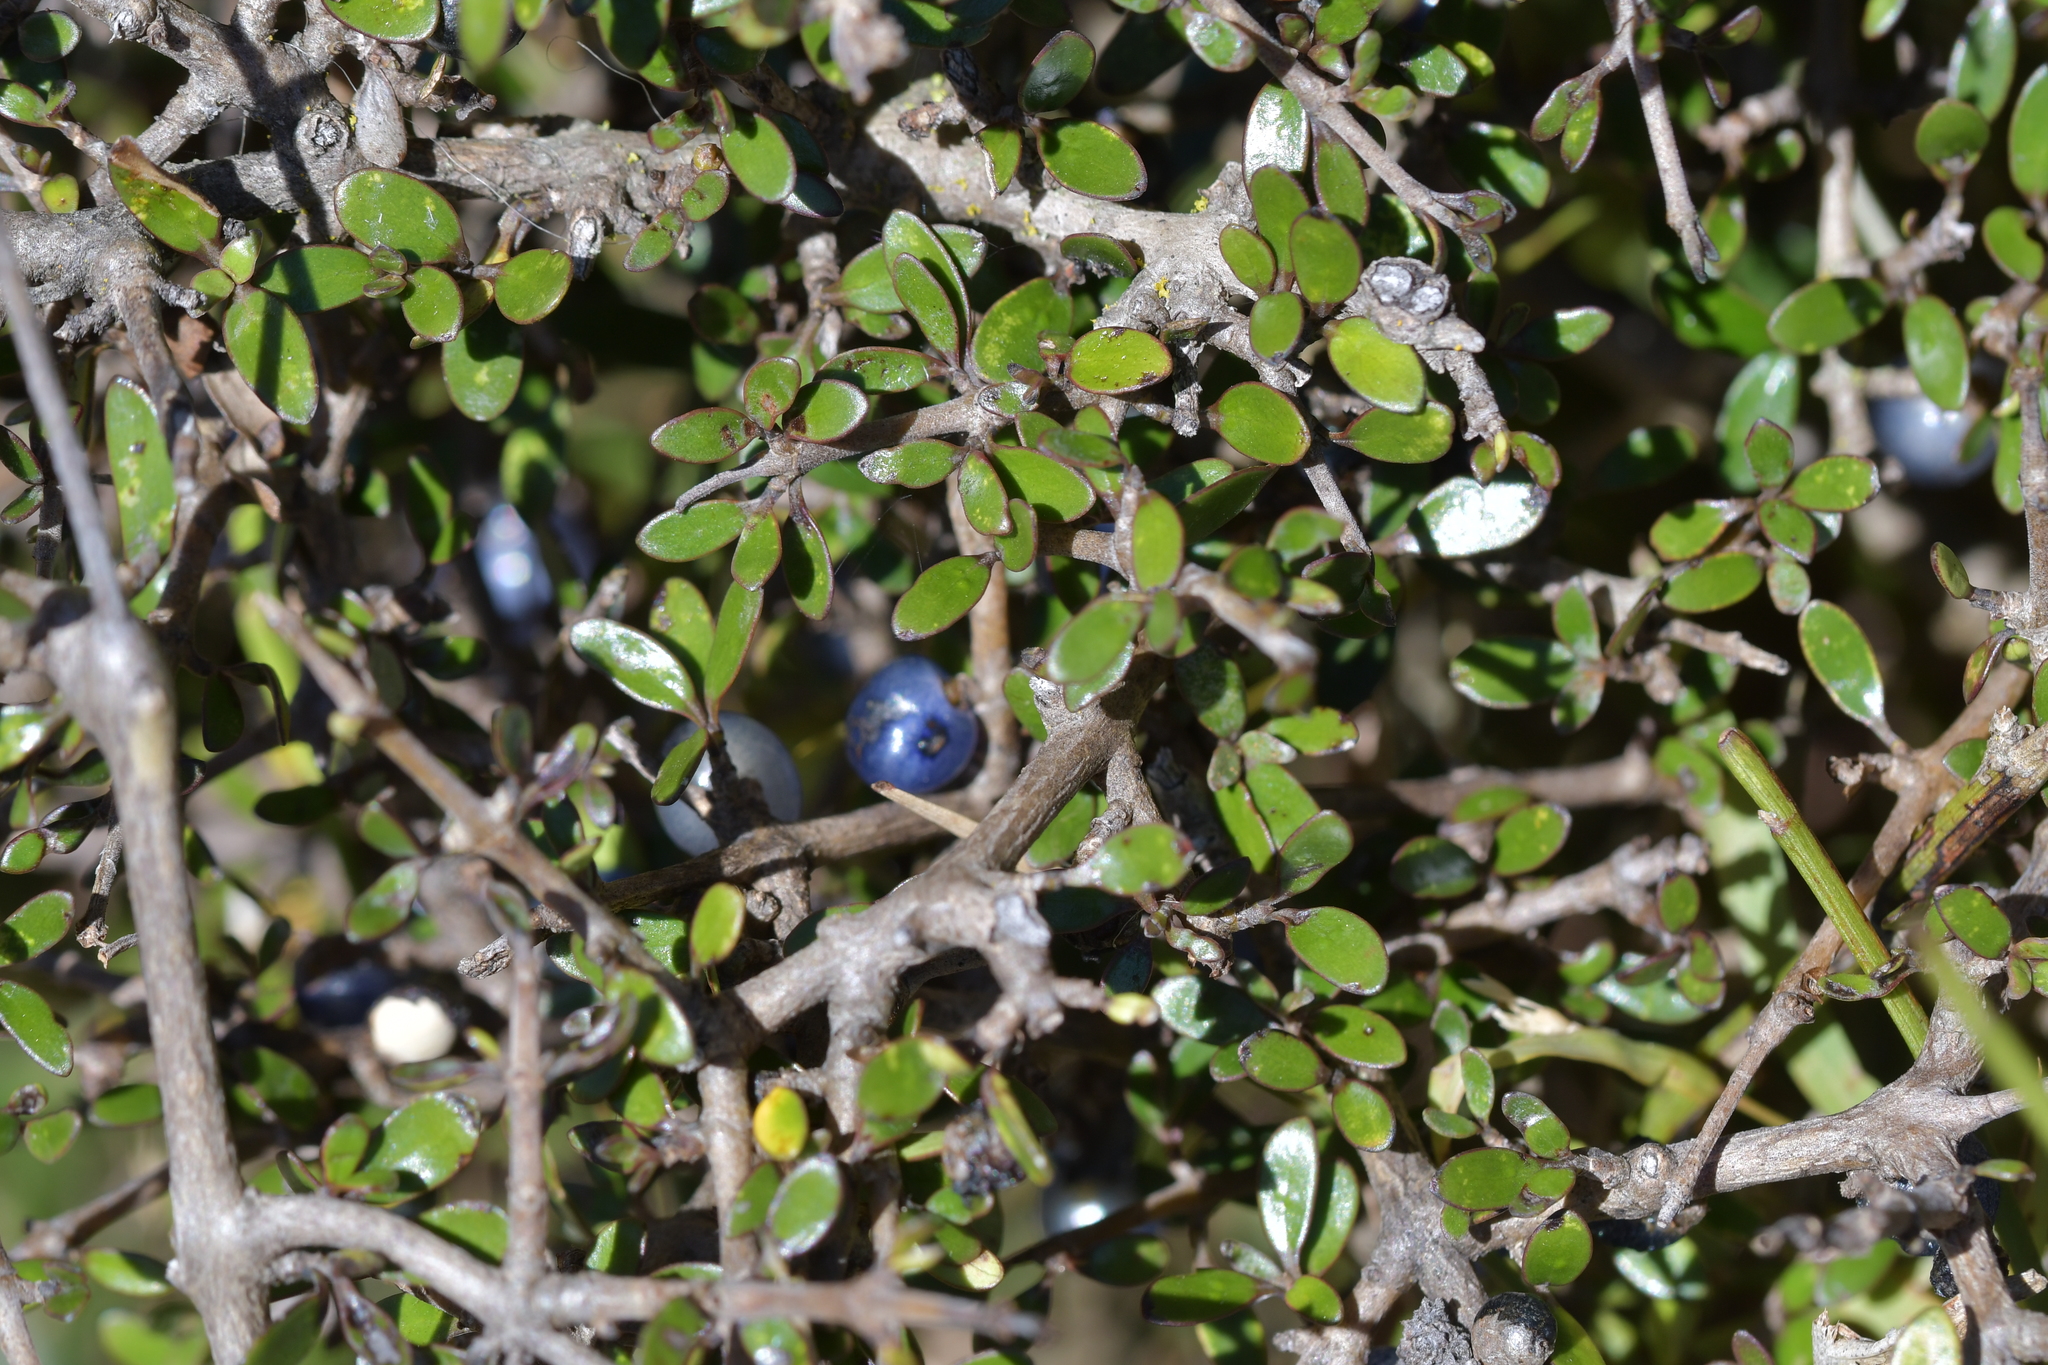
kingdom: Plantae
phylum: Tracheophyta
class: Magnoliopsida
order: Gentianales
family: Rubiaceae
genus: Coprosma
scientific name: Coprosma propinqua
